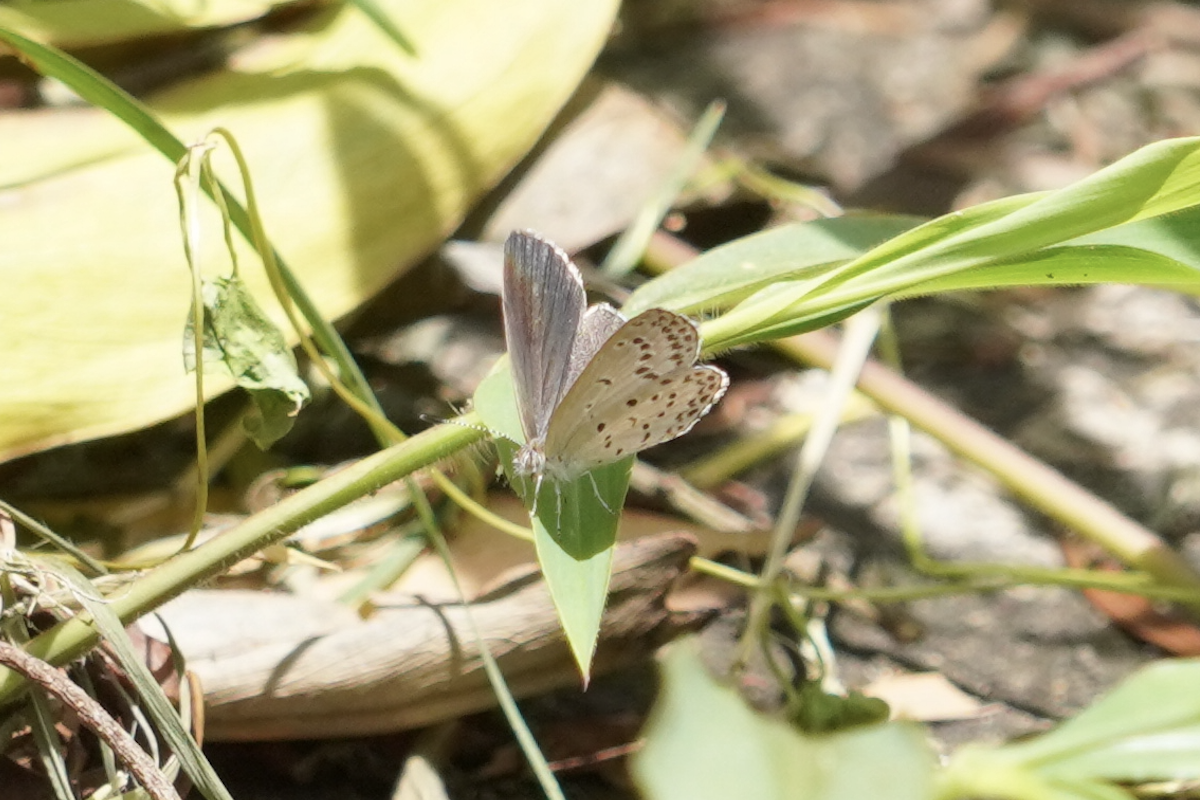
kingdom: Animalia
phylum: Arthropoda
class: Insecta
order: Lepidoptera
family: Lycaenidae
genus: Pseudozizeeria
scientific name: Pseudozizeeria maha
